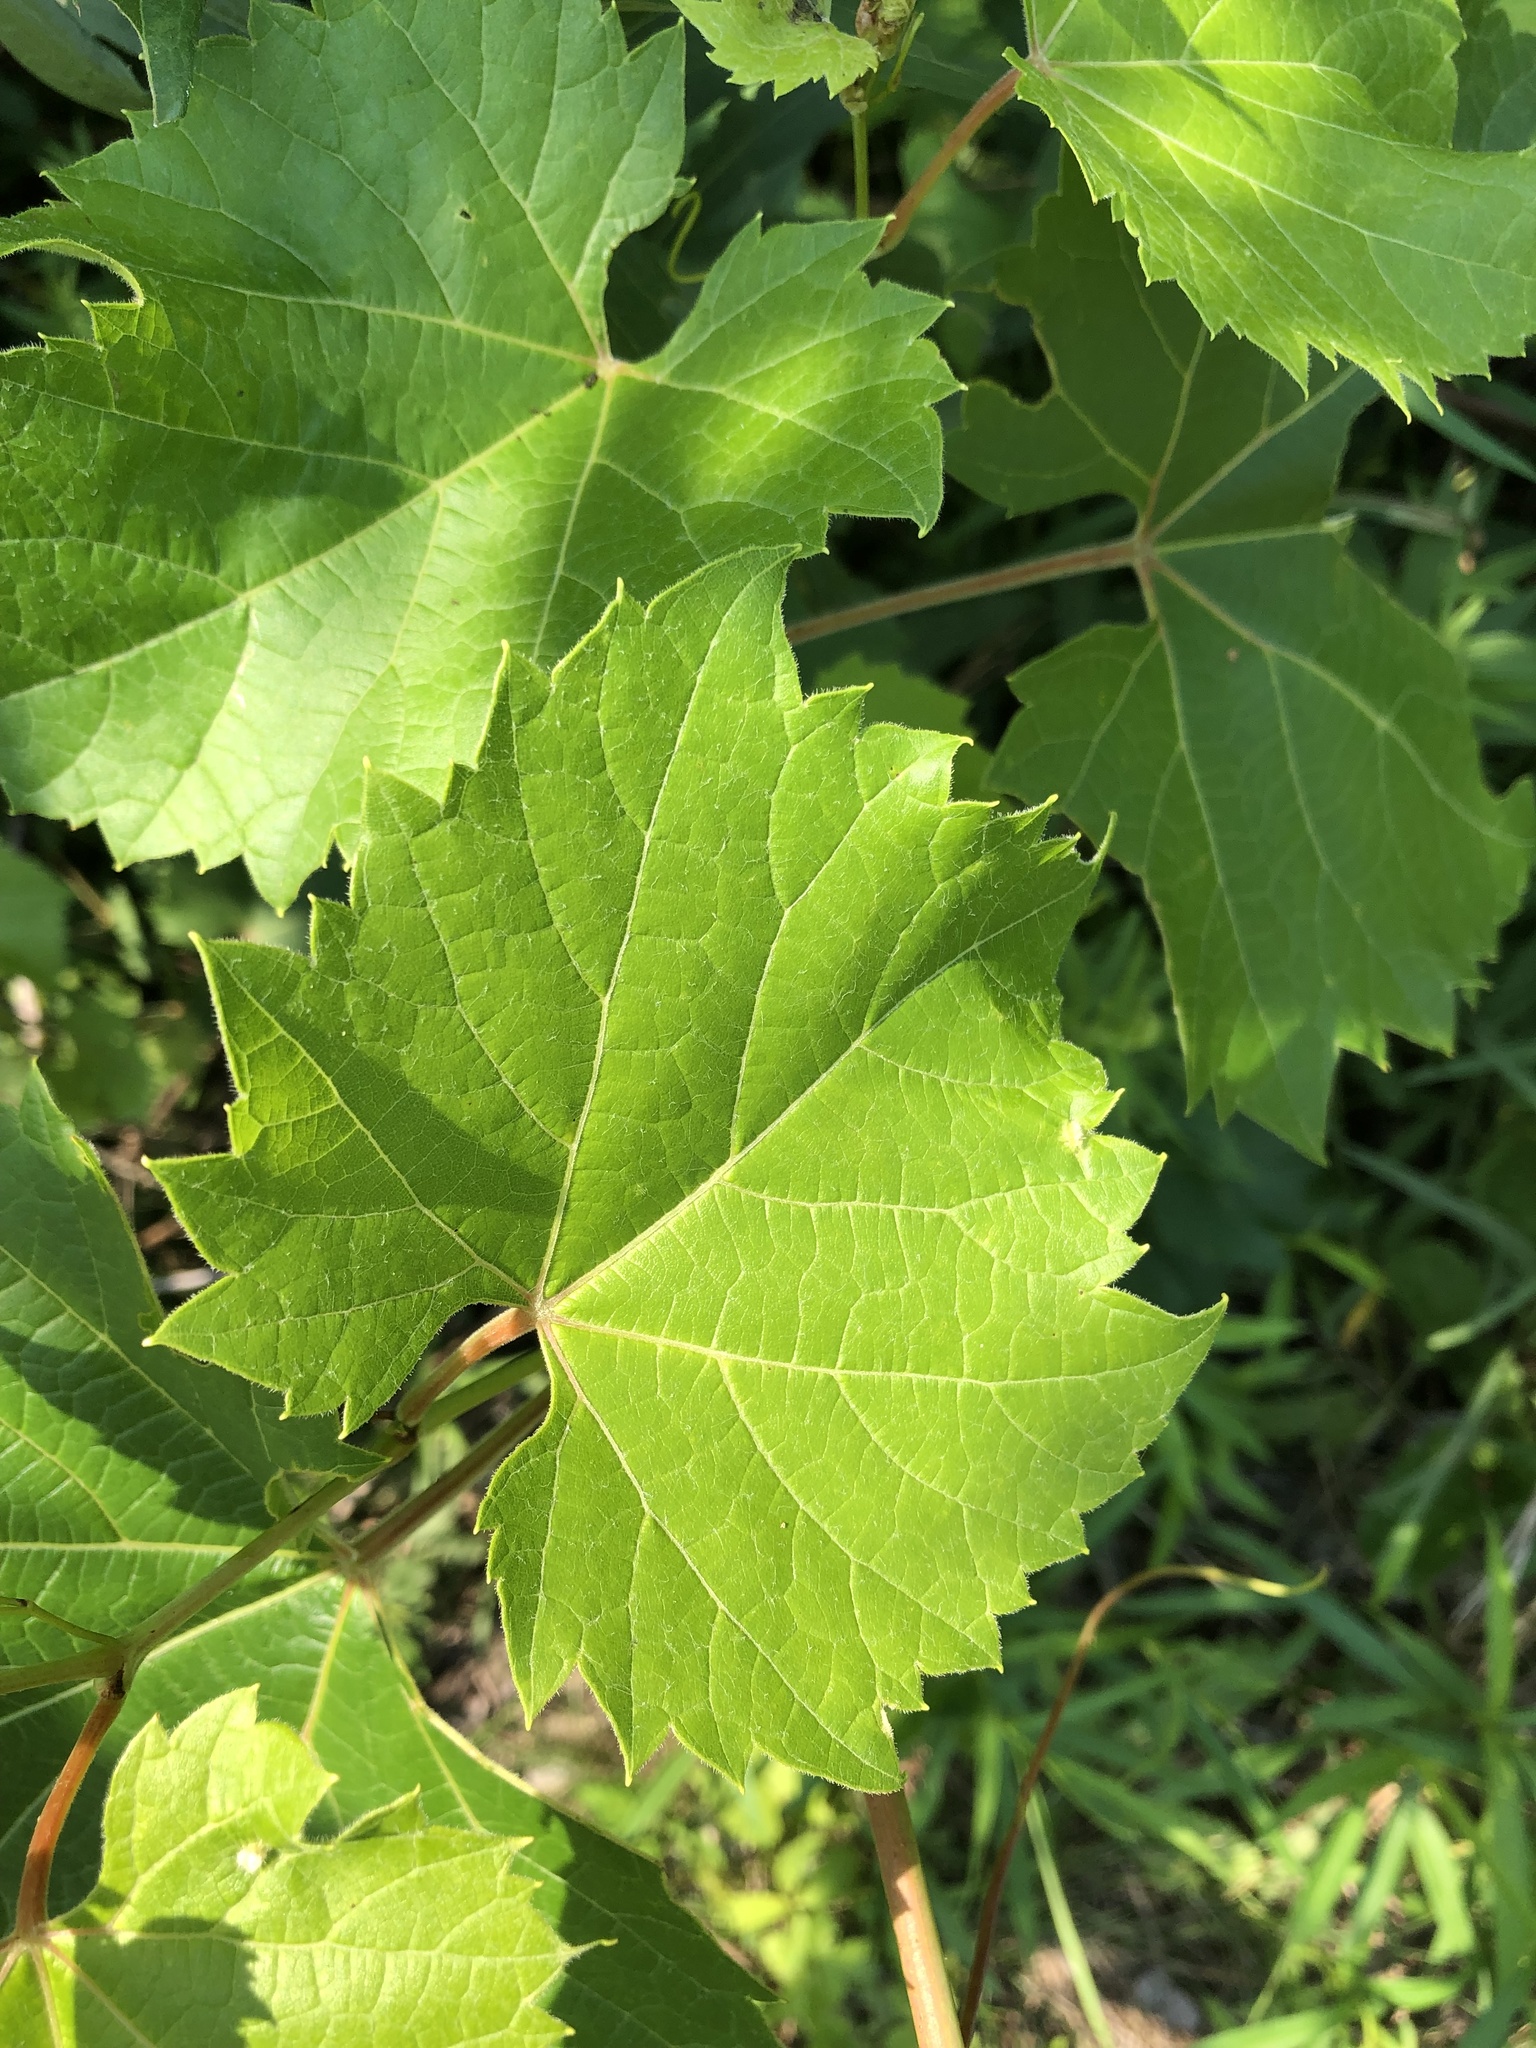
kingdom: Plantae
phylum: Tracheophyta
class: Magnoliopsida
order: Vitales
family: Vitaceae
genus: Vitis
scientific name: Vitis riparia
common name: Frost grape
